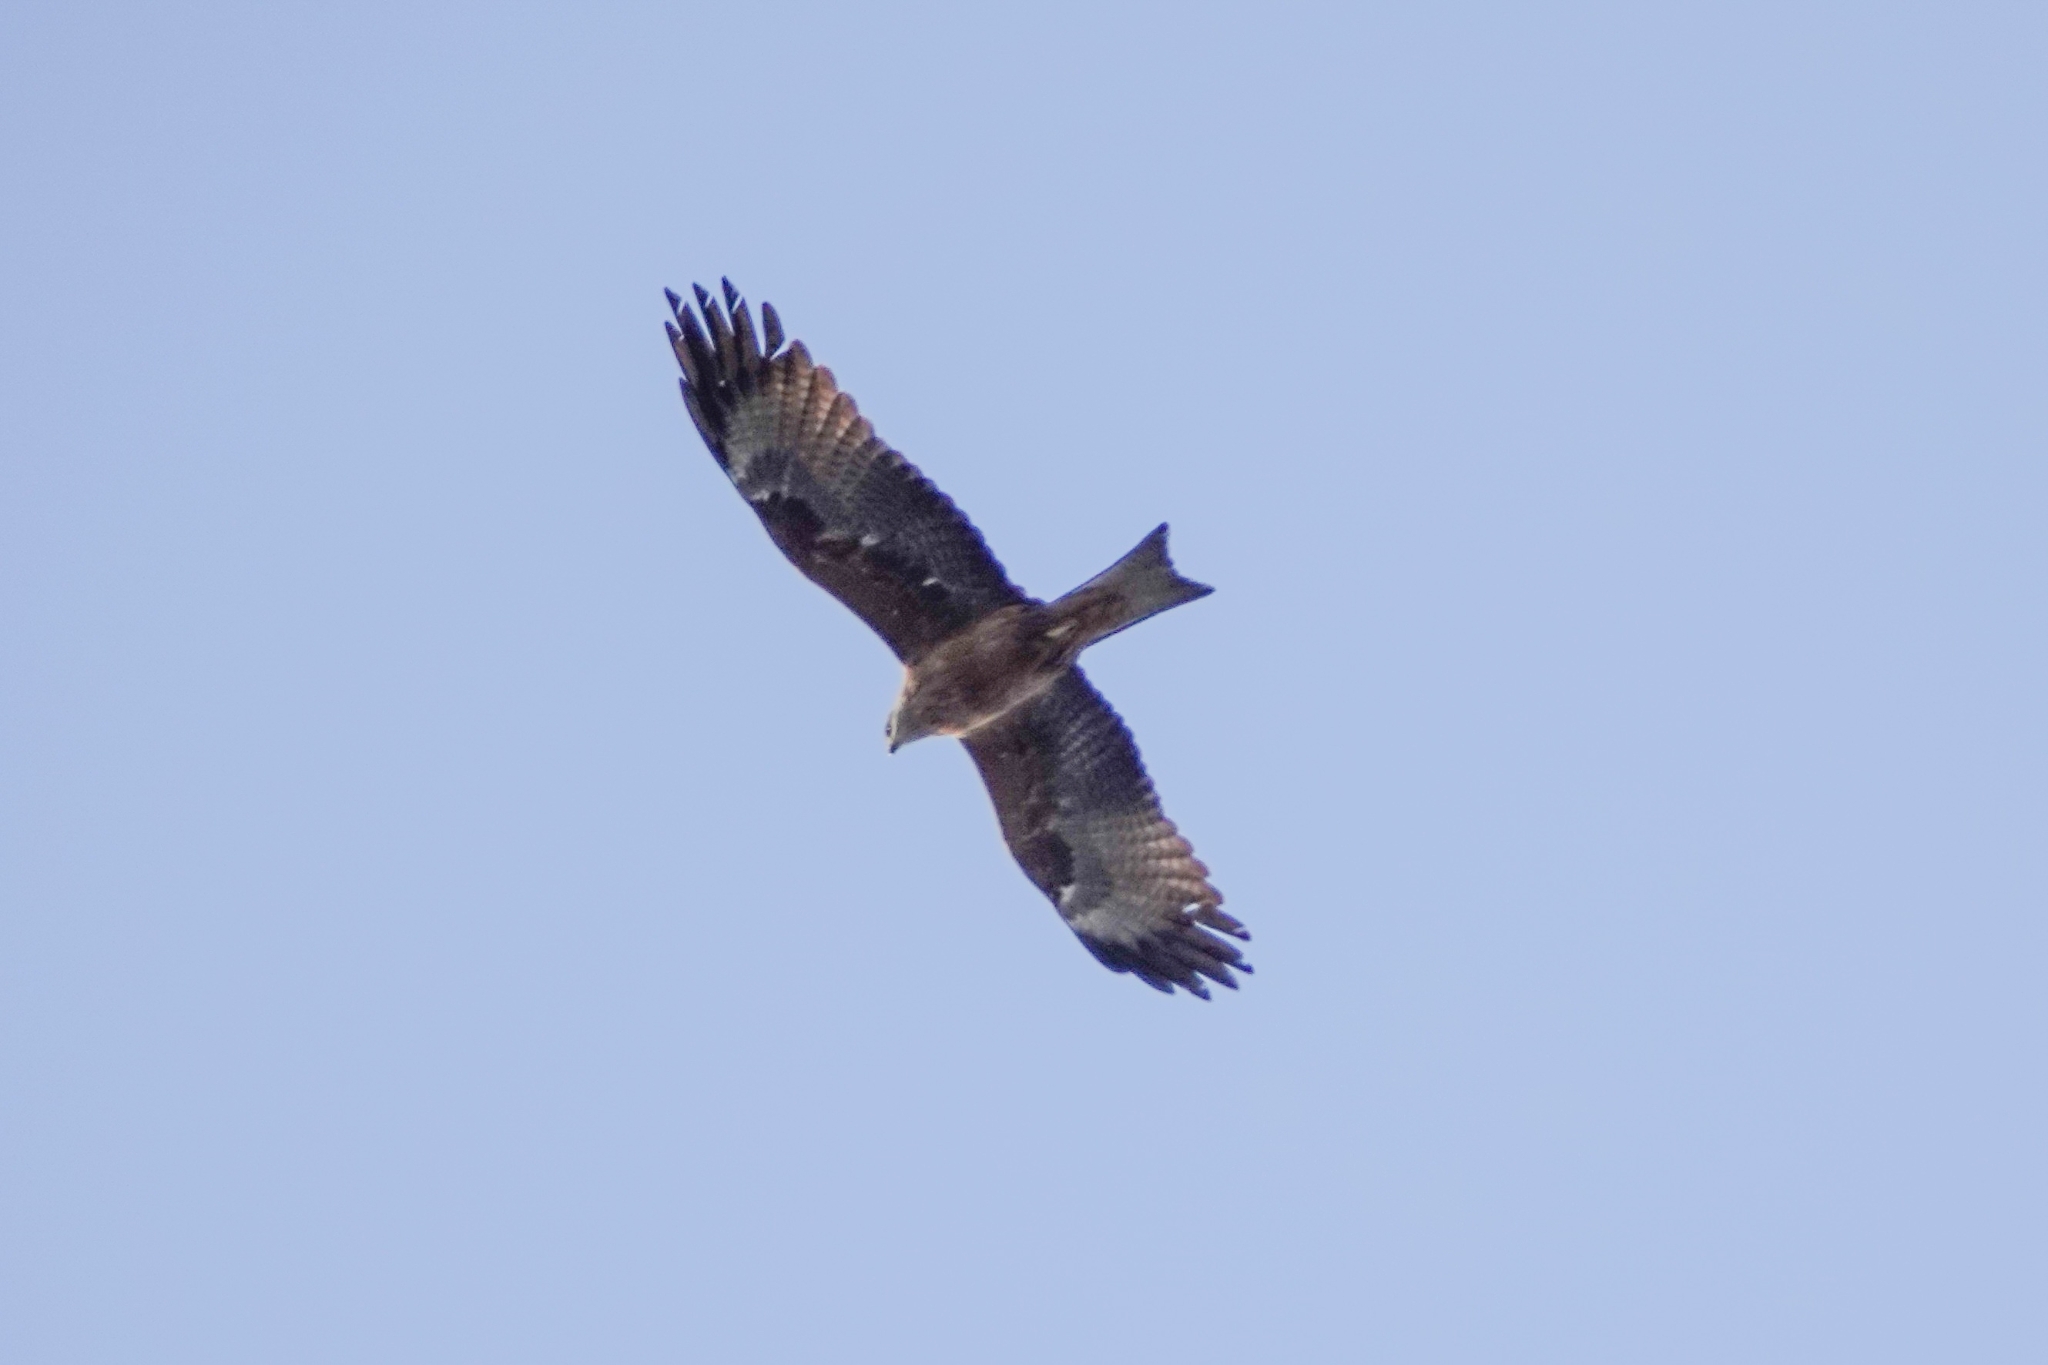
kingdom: Animalia
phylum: Chordata
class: Aves
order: Accipitriformes
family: Accipitridae
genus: Milvus
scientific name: Milvus migrans
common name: Black kite
